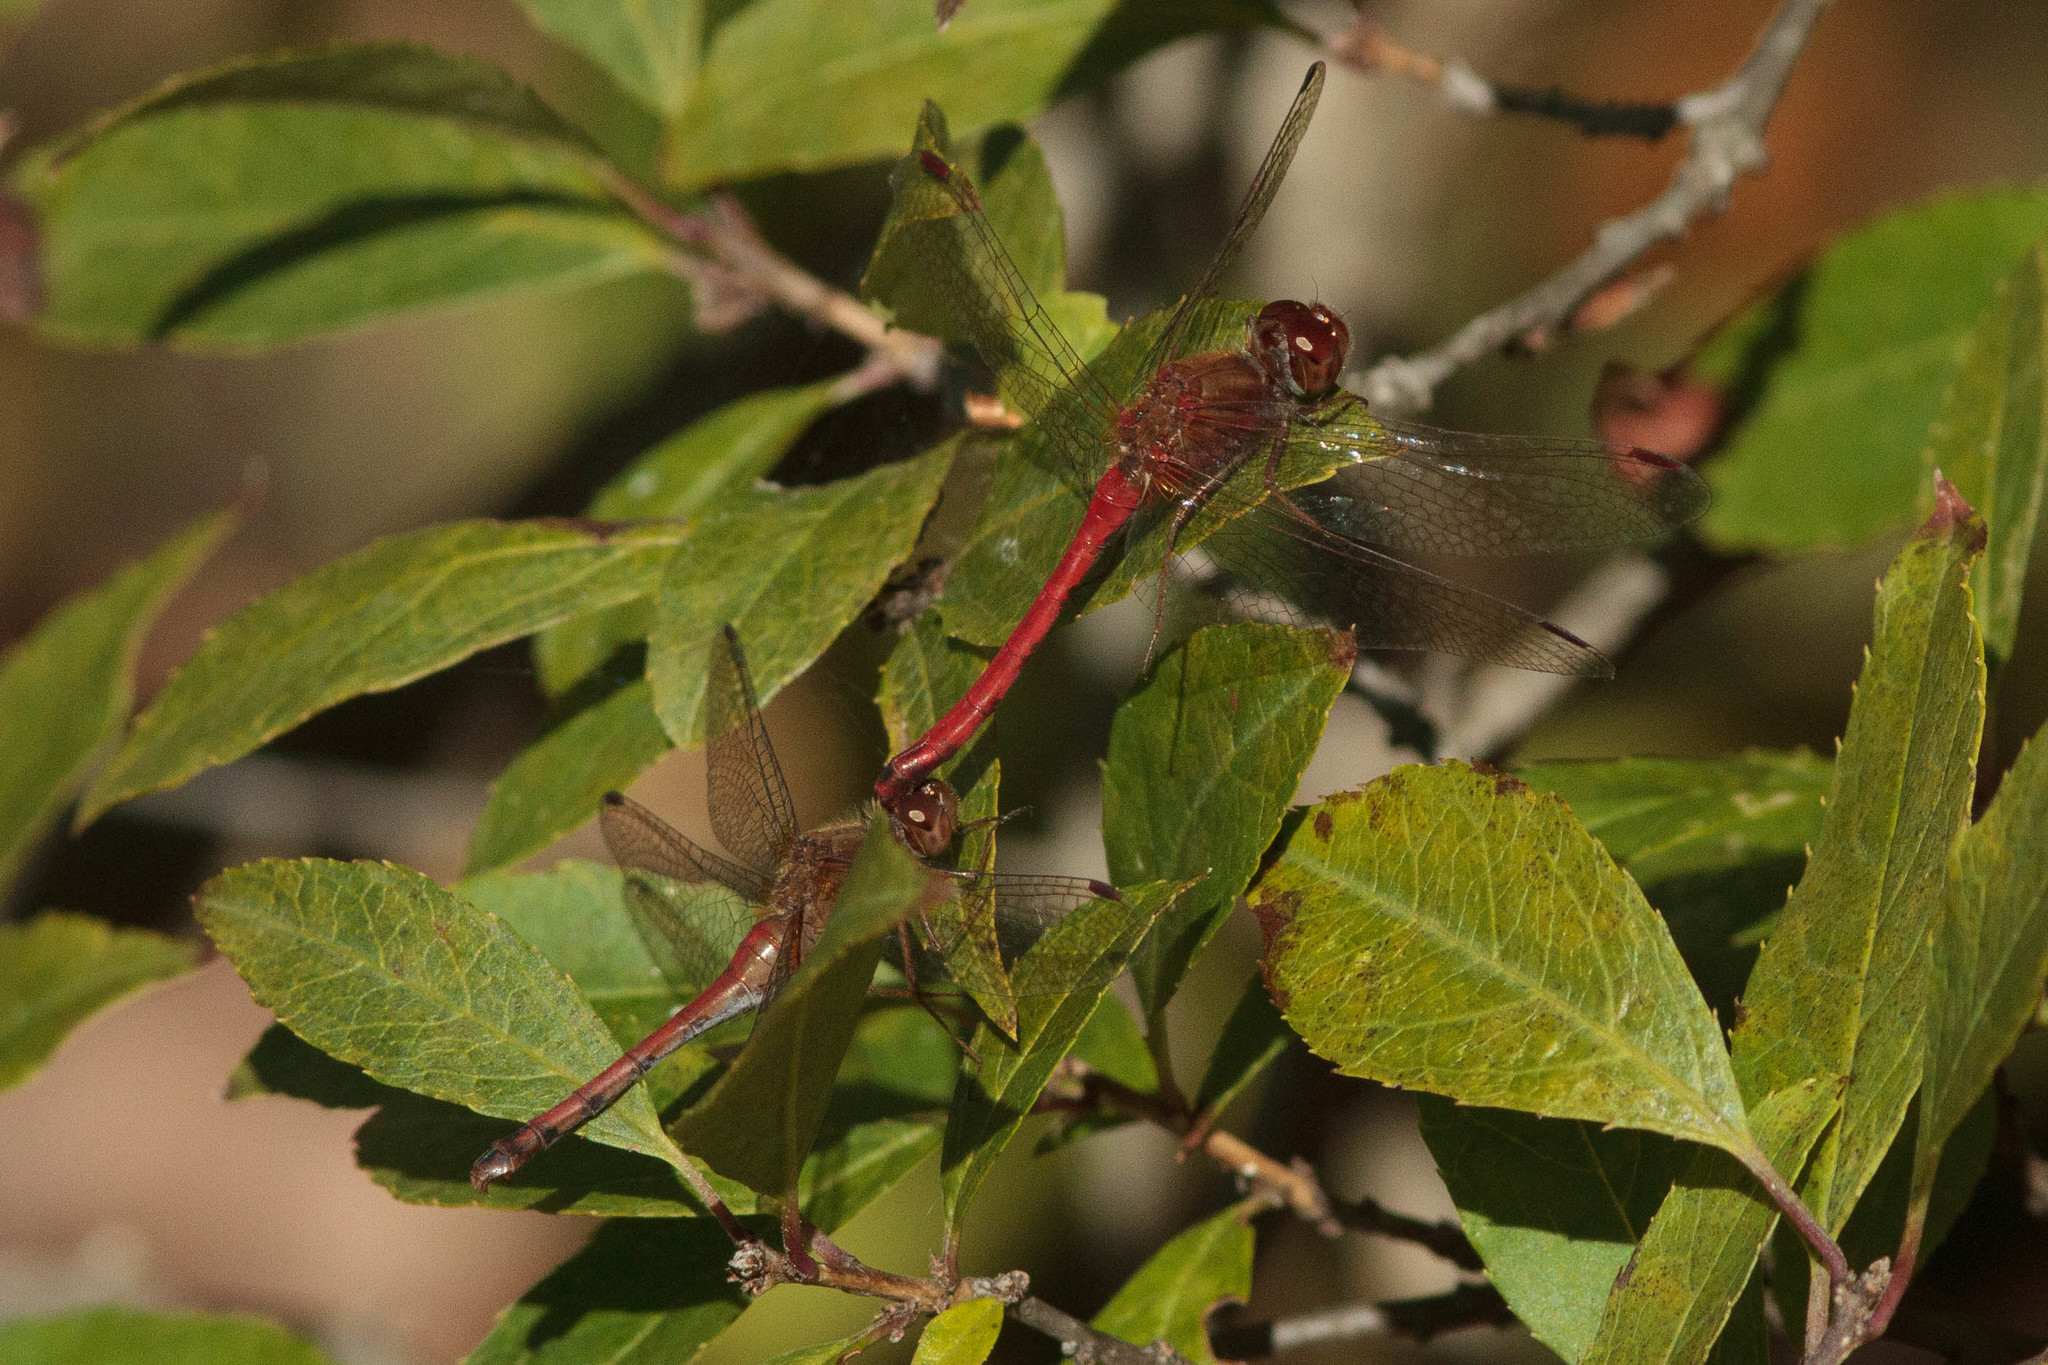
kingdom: Animalia
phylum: Arthropoda
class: Insecta
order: Odonata
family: Libellulidae
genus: Sympetrum
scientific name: Sympetrum vicinum
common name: Autumn meadowhawk
